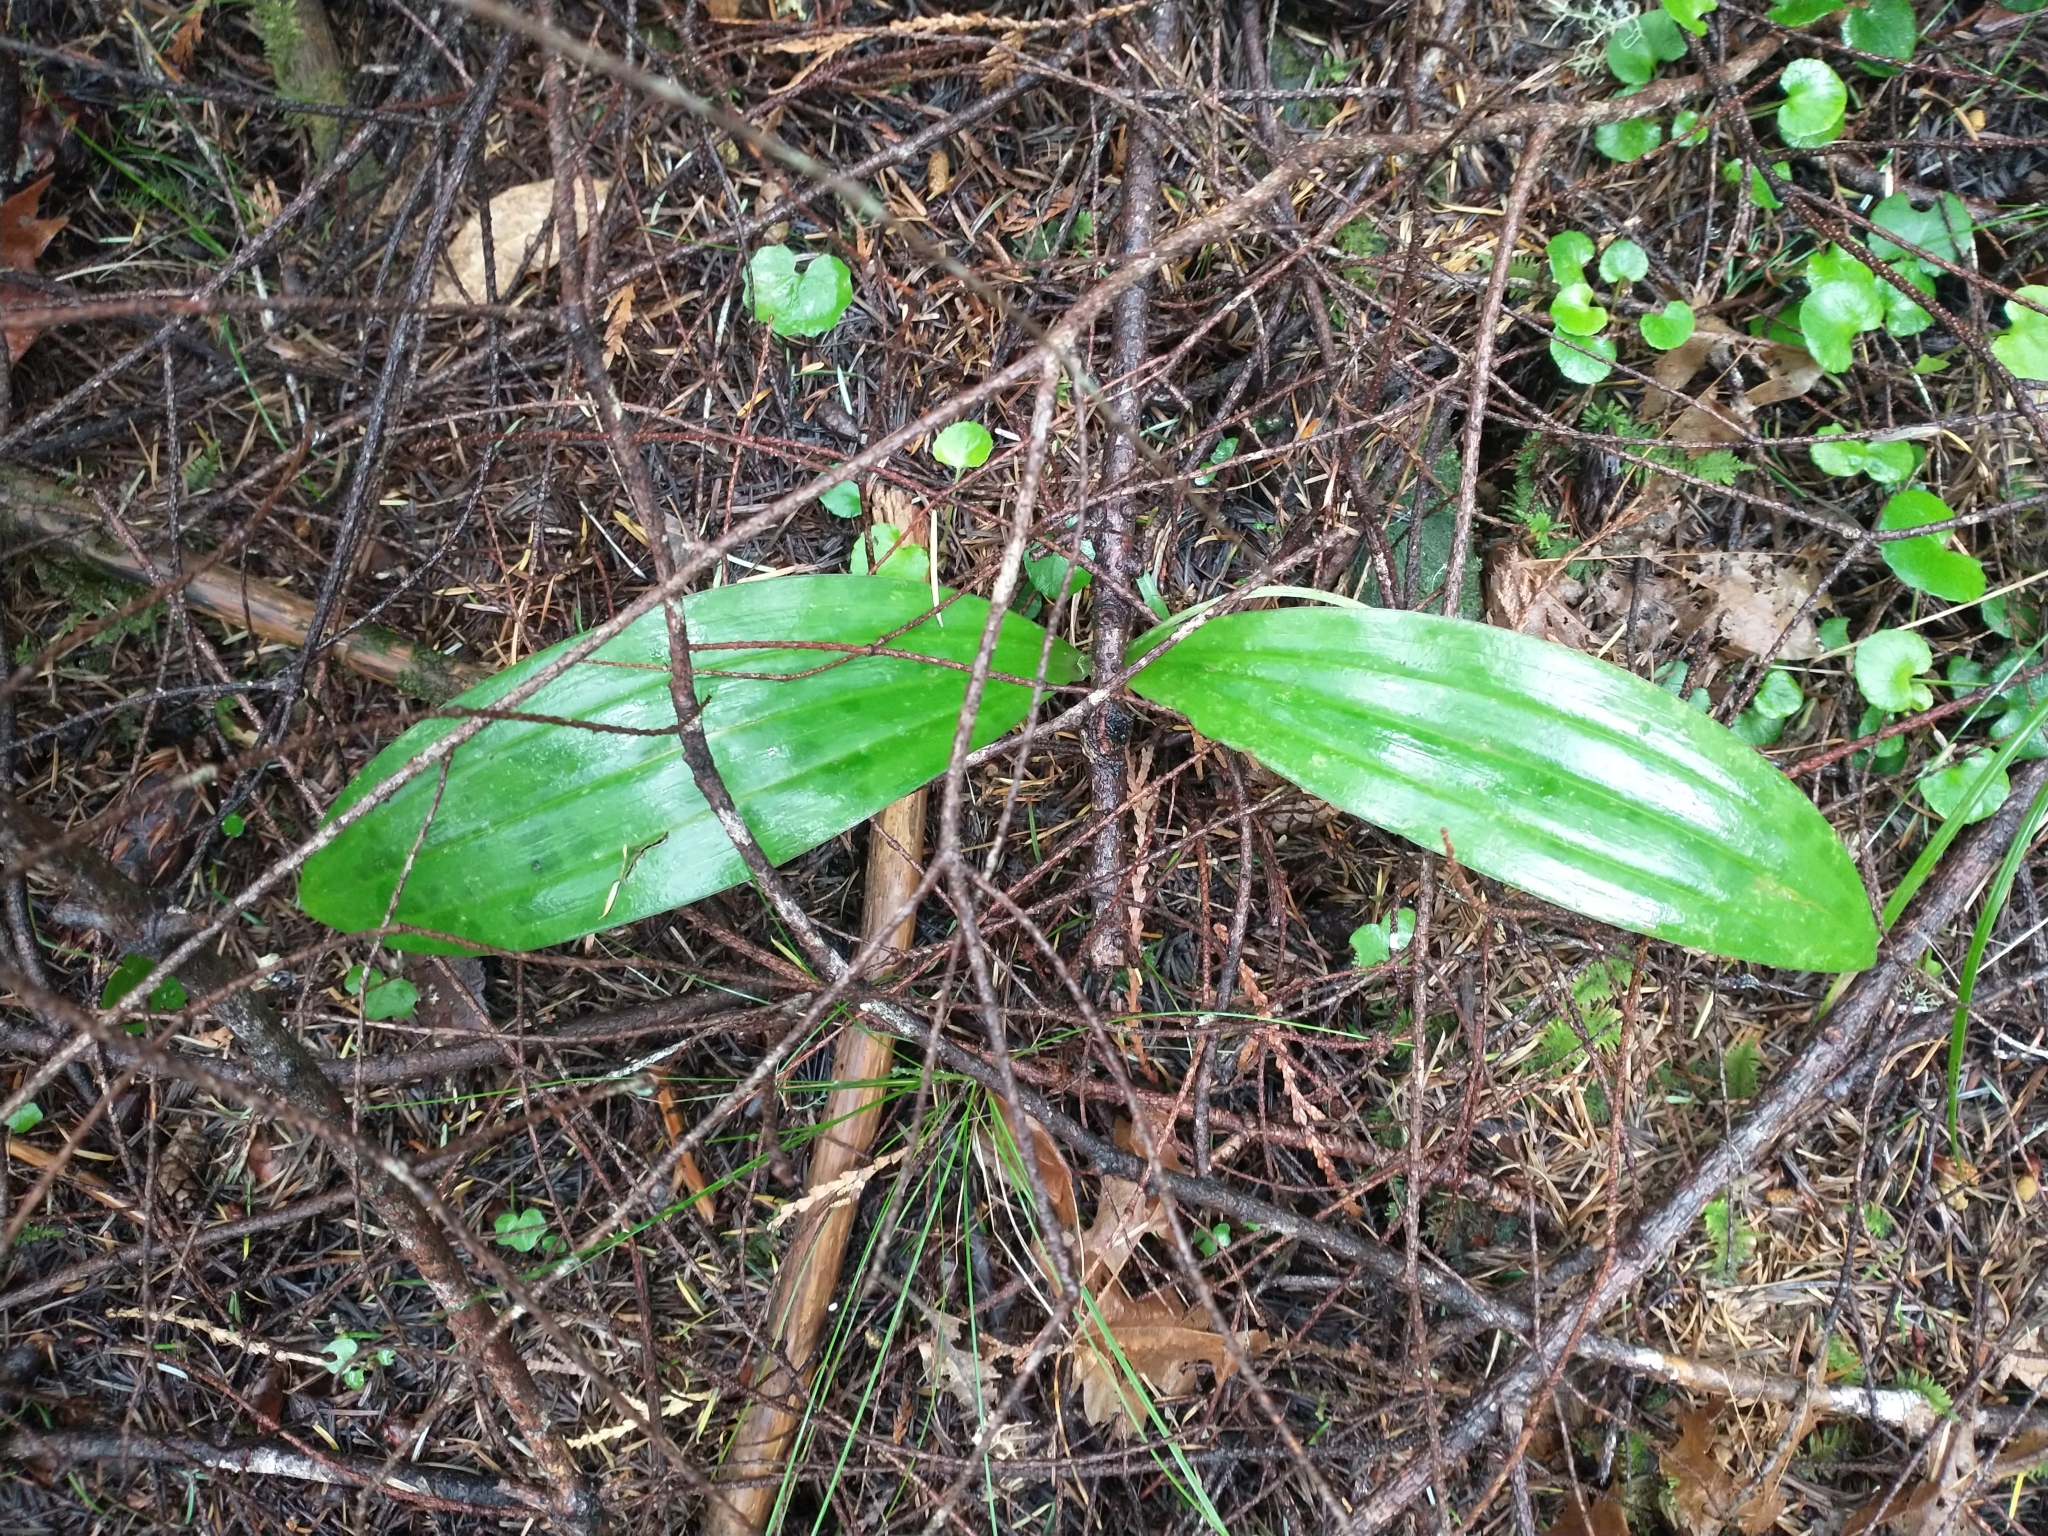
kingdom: Plantae
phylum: Tracheophyta
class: Liliopsida
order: Liliales
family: Liliaceae
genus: Scoliopus
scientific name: Scoliopus bigelovii
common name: Foetid adder's-tongue
